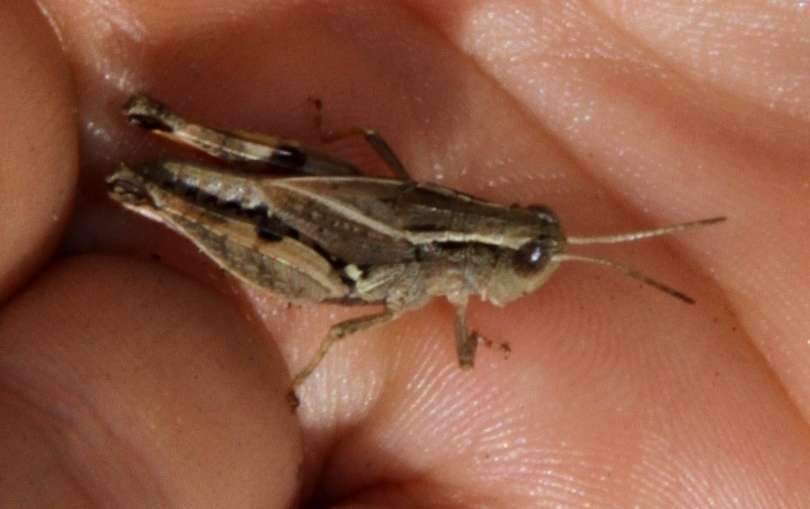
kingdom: Animalia
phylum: Arthropoda
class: Insecta
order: Orthoptera
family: Acrididae
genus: Phaulacridium
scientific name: Phaulacridium vittatum
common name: Wingless grasshopper
